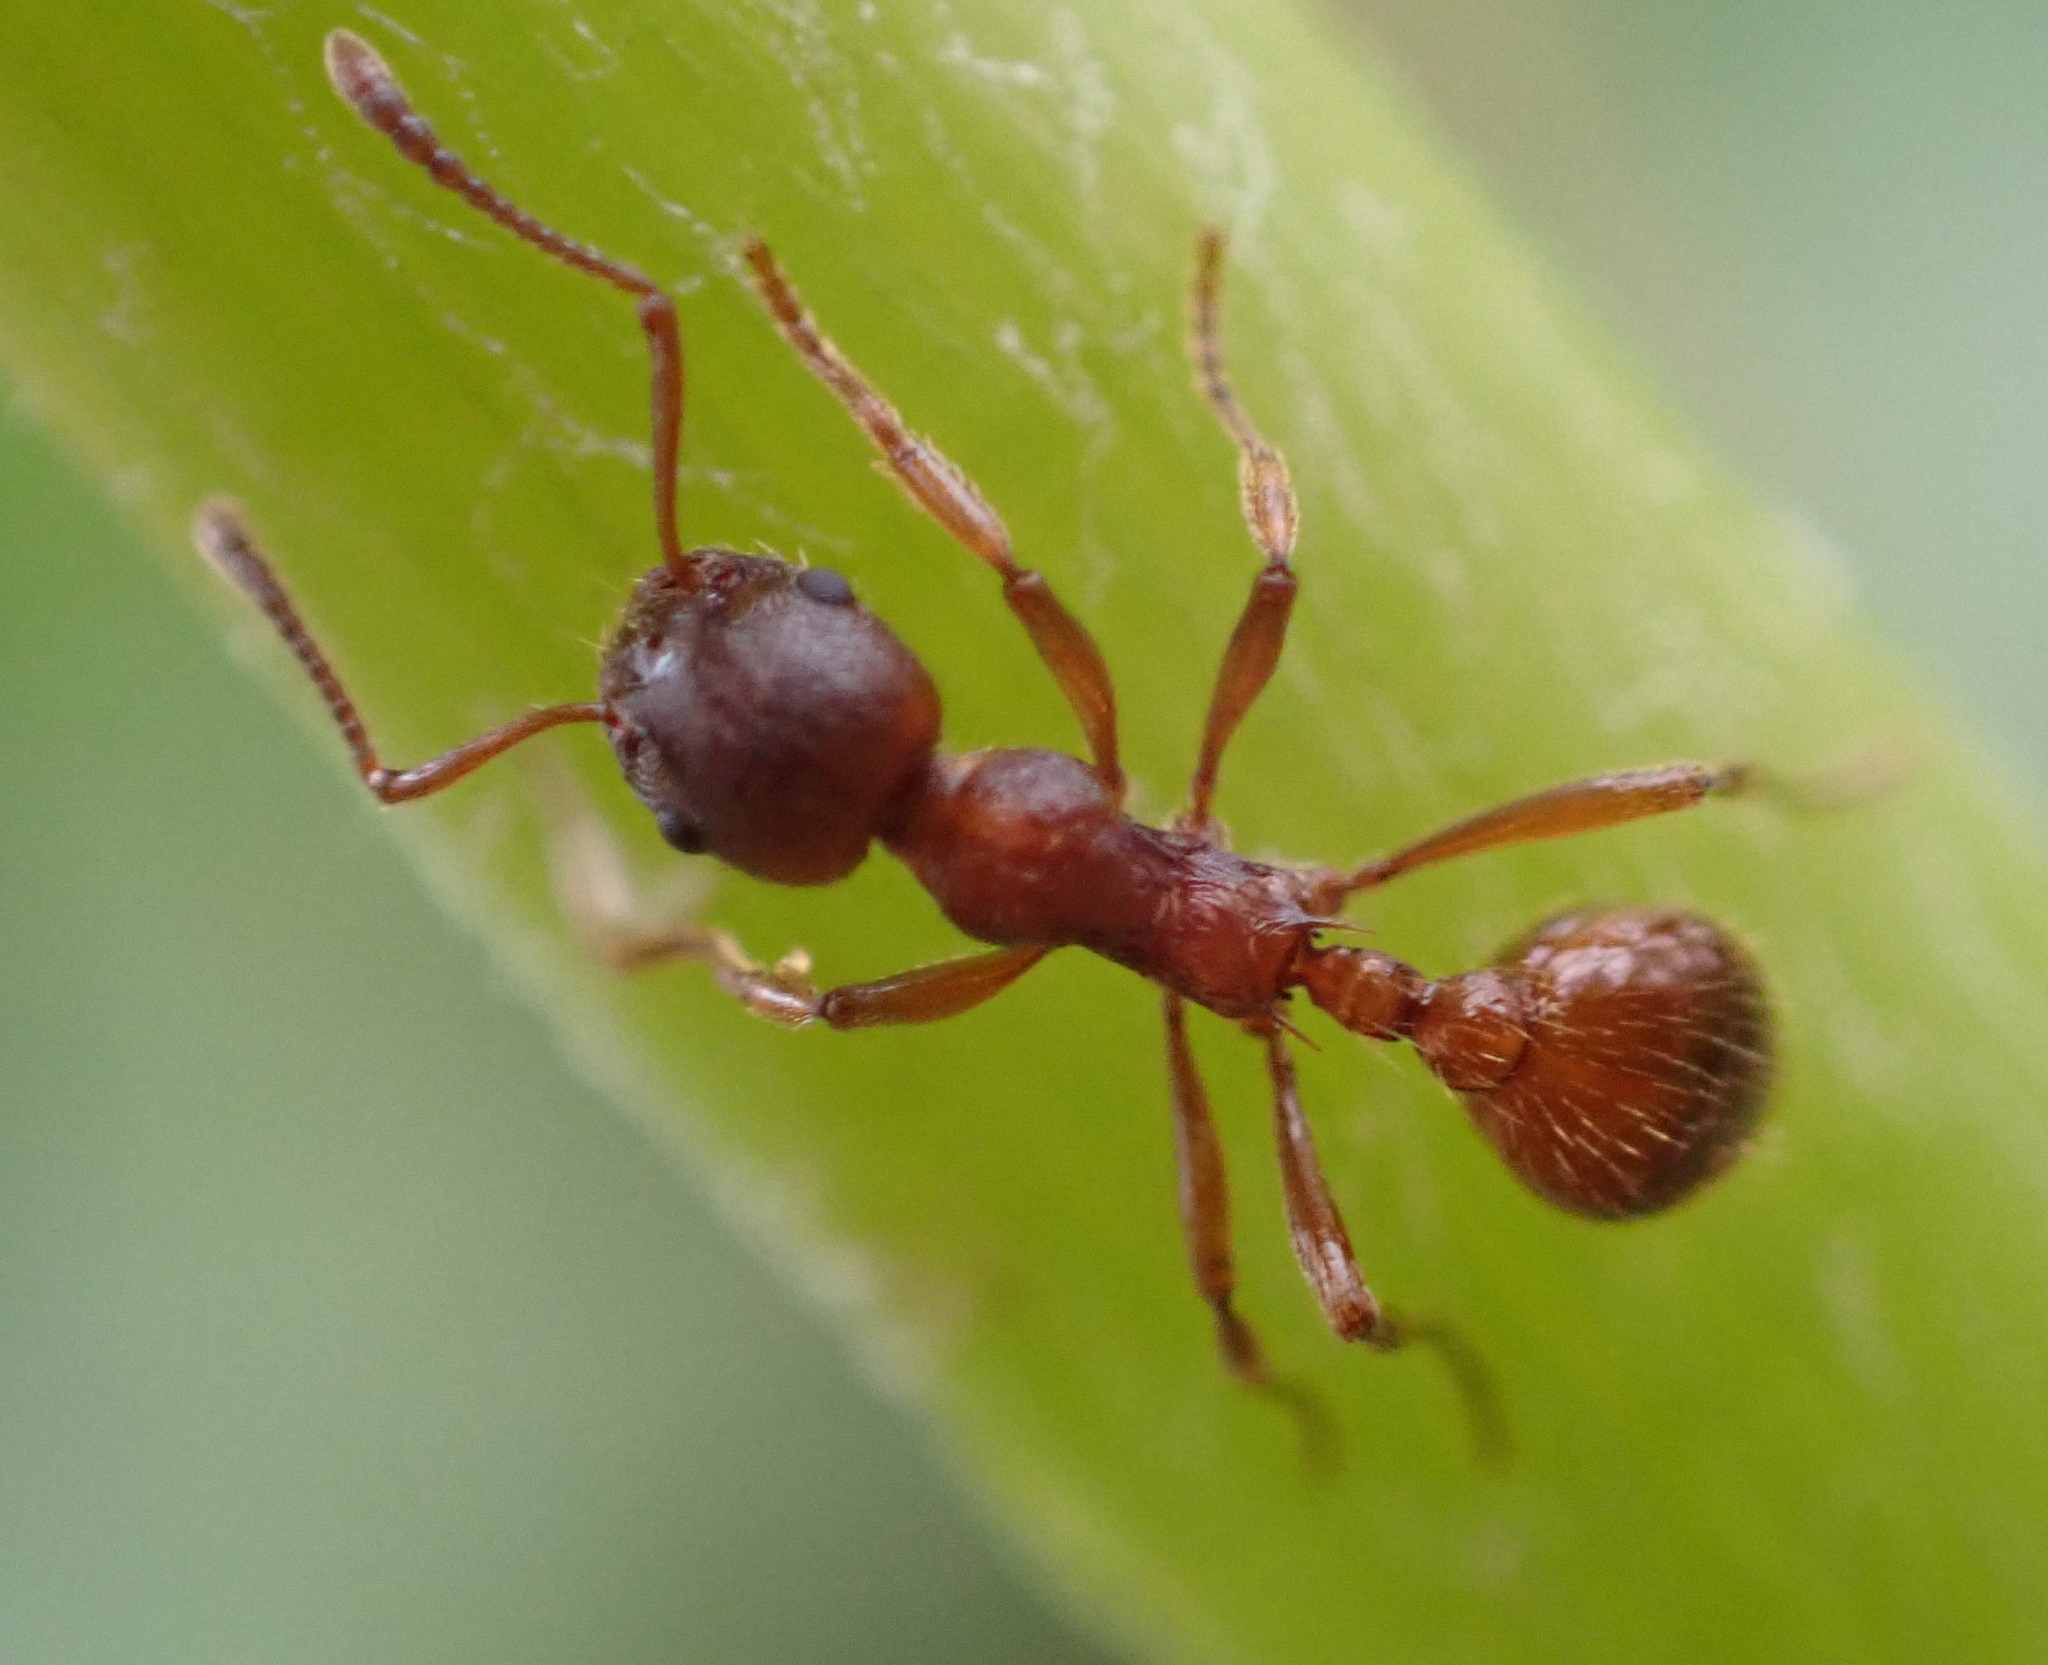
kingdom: Animalia
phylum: Arthropoda
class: Insecta
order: Hymenoptera
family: Formicidae
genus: Myrmica
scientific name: Myrmica rubra
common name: European fire ant
